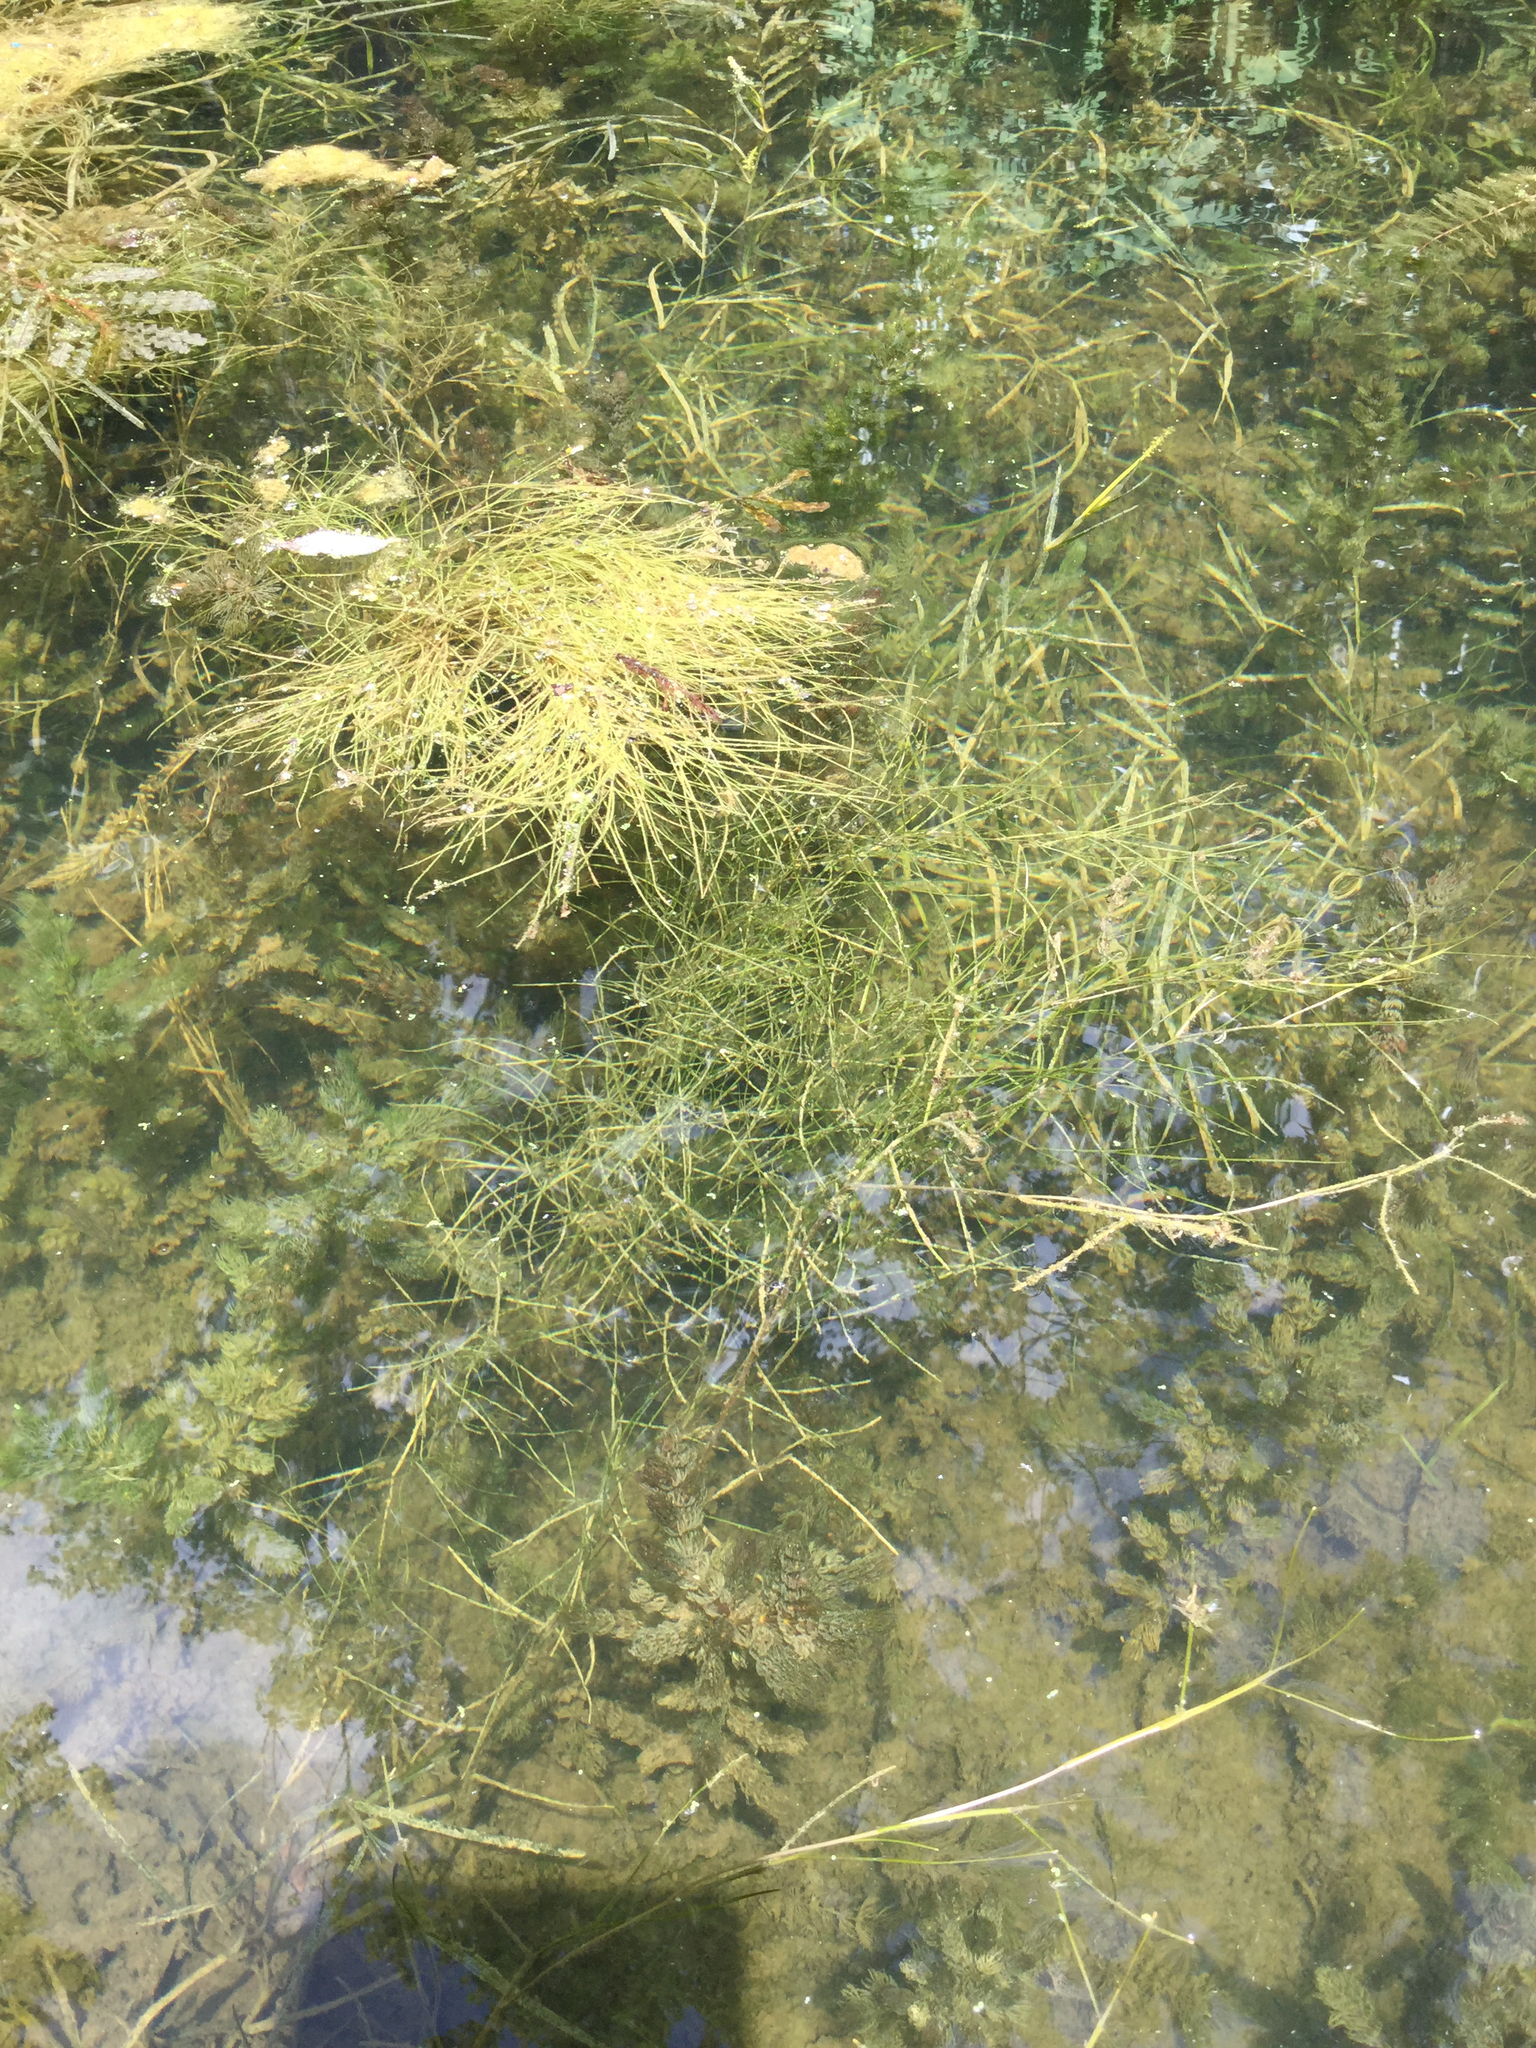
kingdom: Plantae
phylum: Tracheophyta
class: Liliopsida
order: Alismatales
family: Potamogetonaceae
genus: Stuckenia
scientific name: Stuckenia pectinata
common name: Sago pondweed
